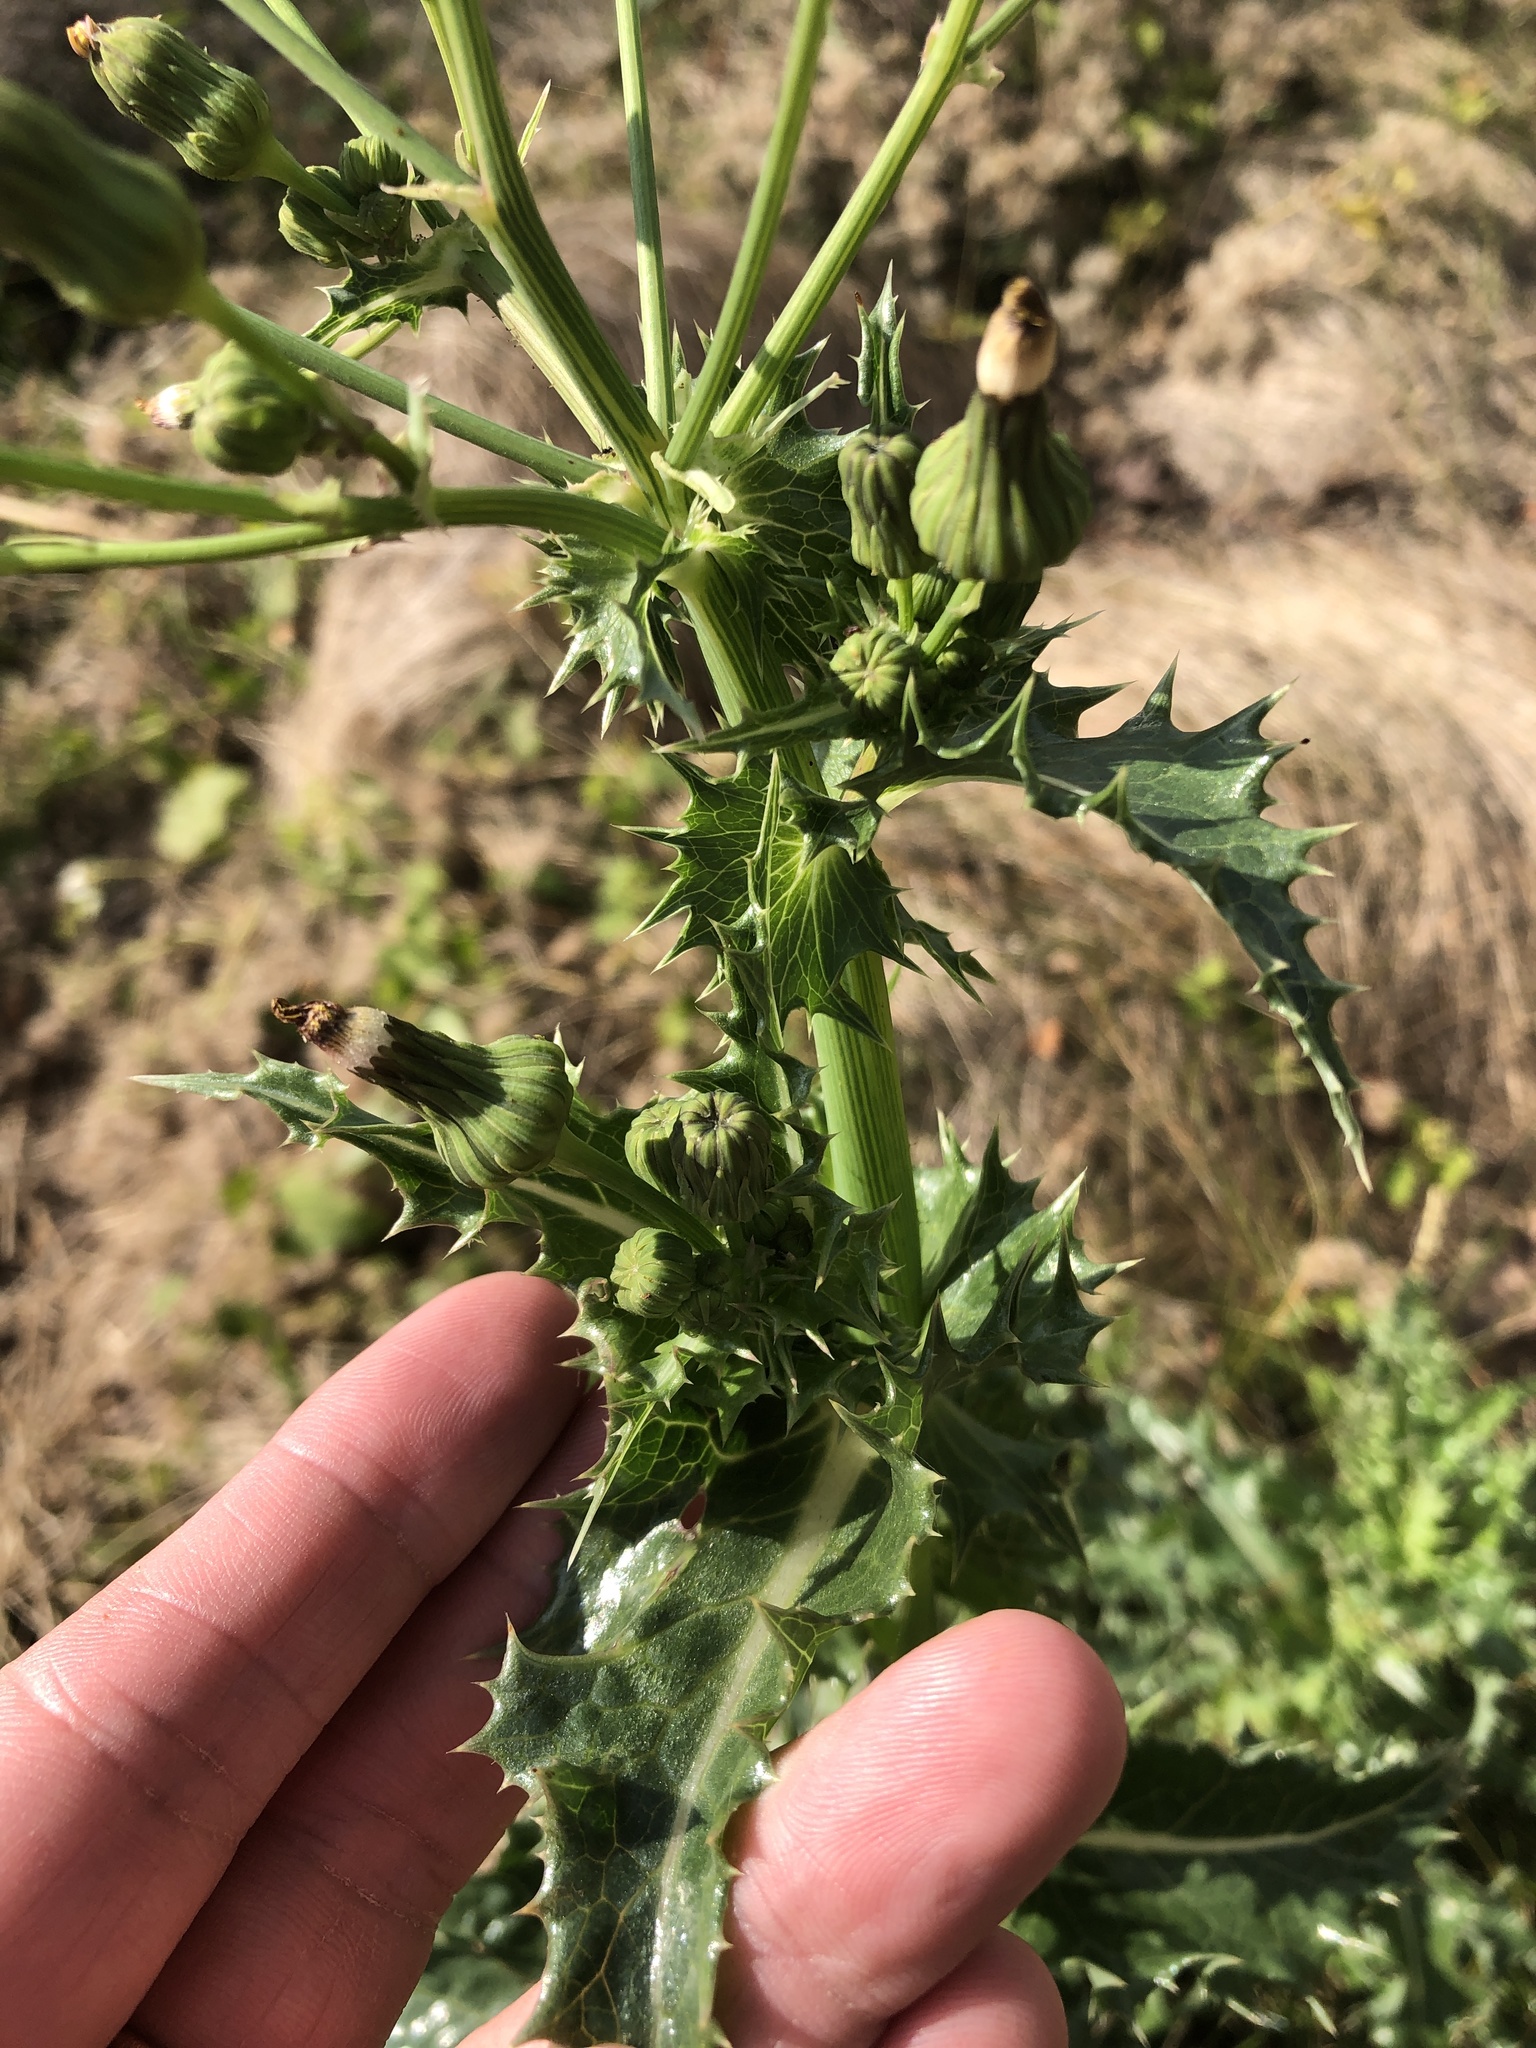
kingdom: Plantae
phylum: Tracheophyta
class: Magnoliopsida
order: Asterales
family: Asteraceae
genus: Sonchus
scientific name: Sonchus asper
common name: Prickly sow-thistle
